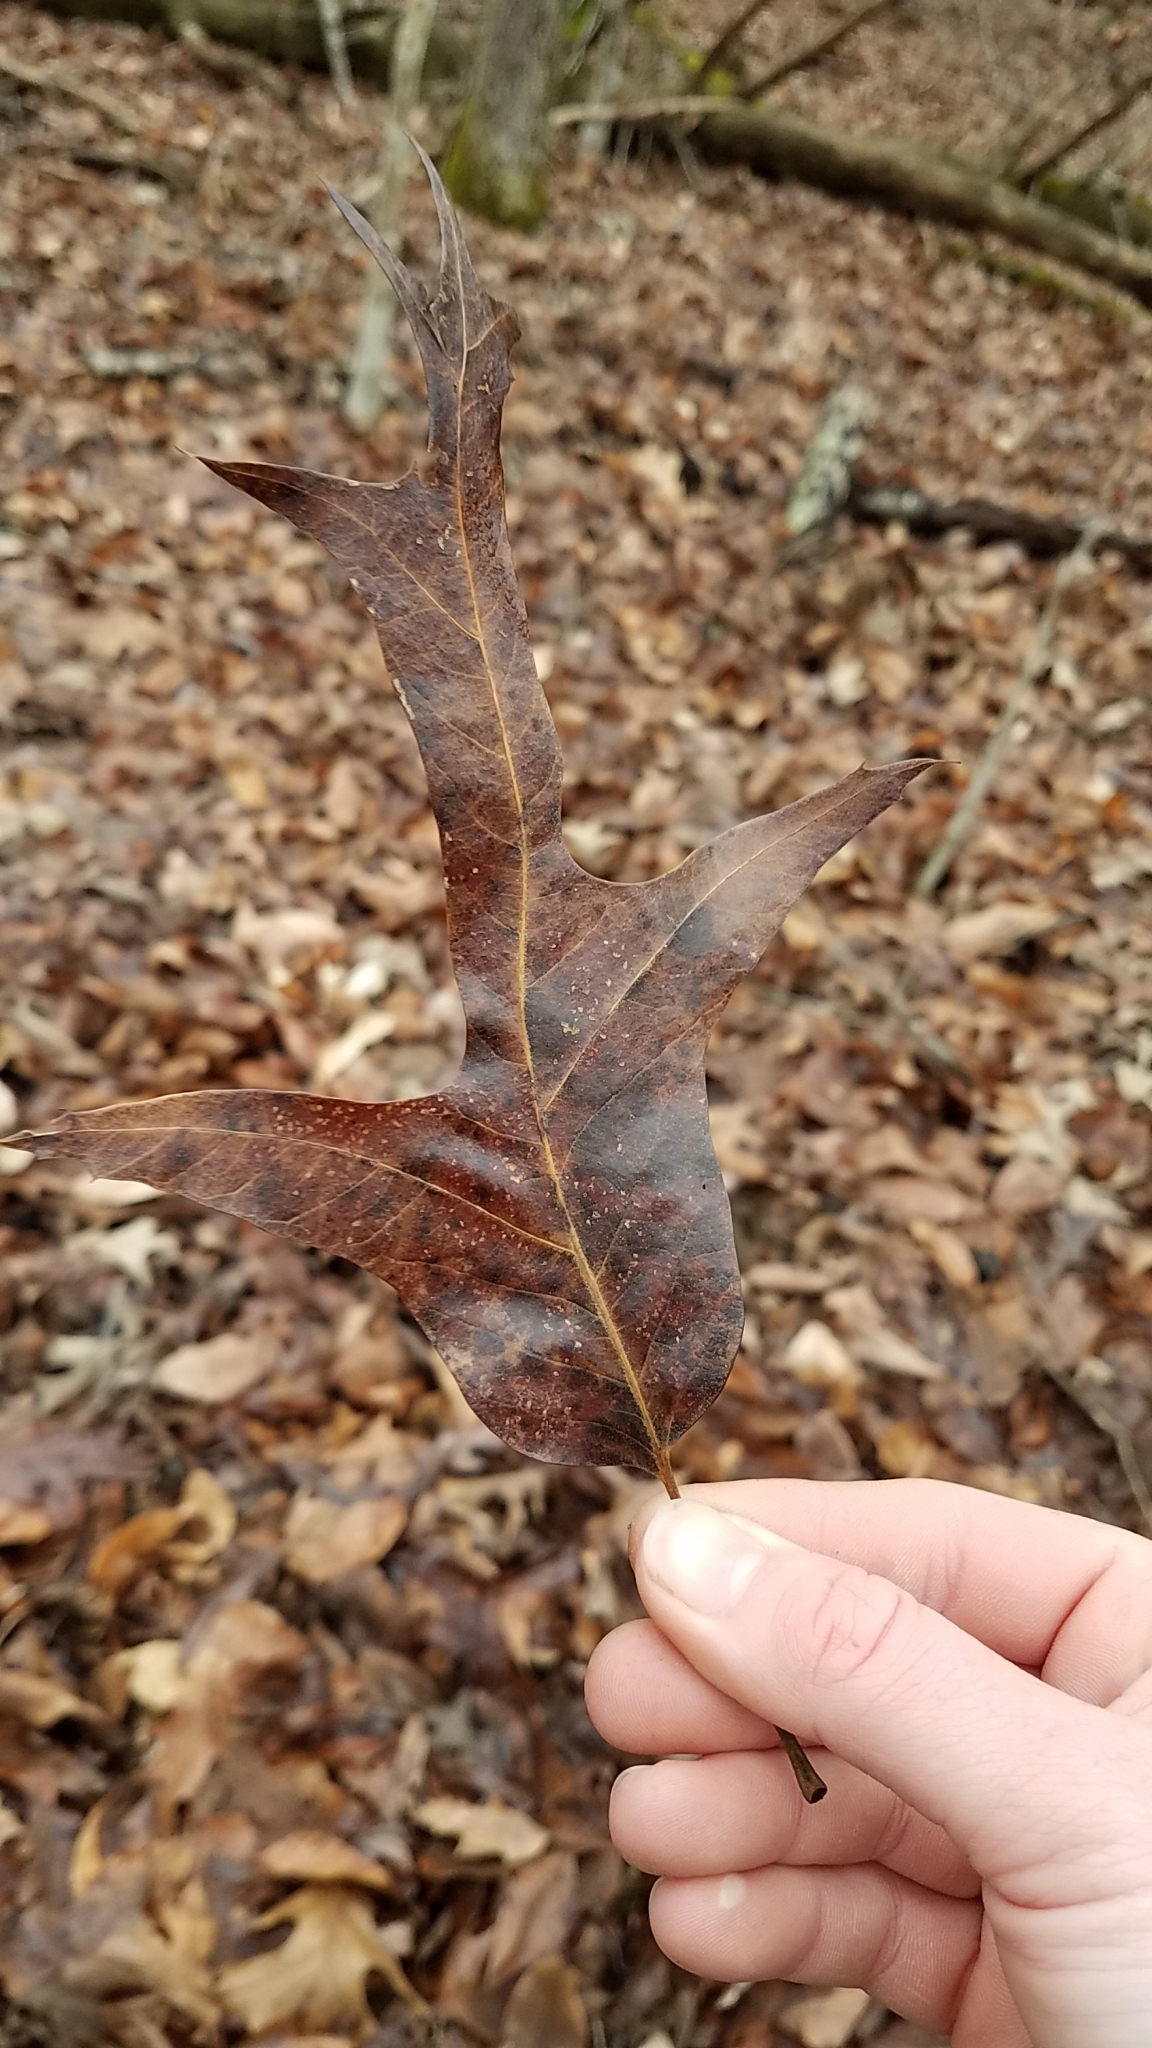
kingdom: Plantae
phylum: Tracheophyta
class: Magnoliopsida
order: Fagales
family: Fagaceae
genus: Quercus
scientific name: Quercus falcata
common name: Southern red oak
